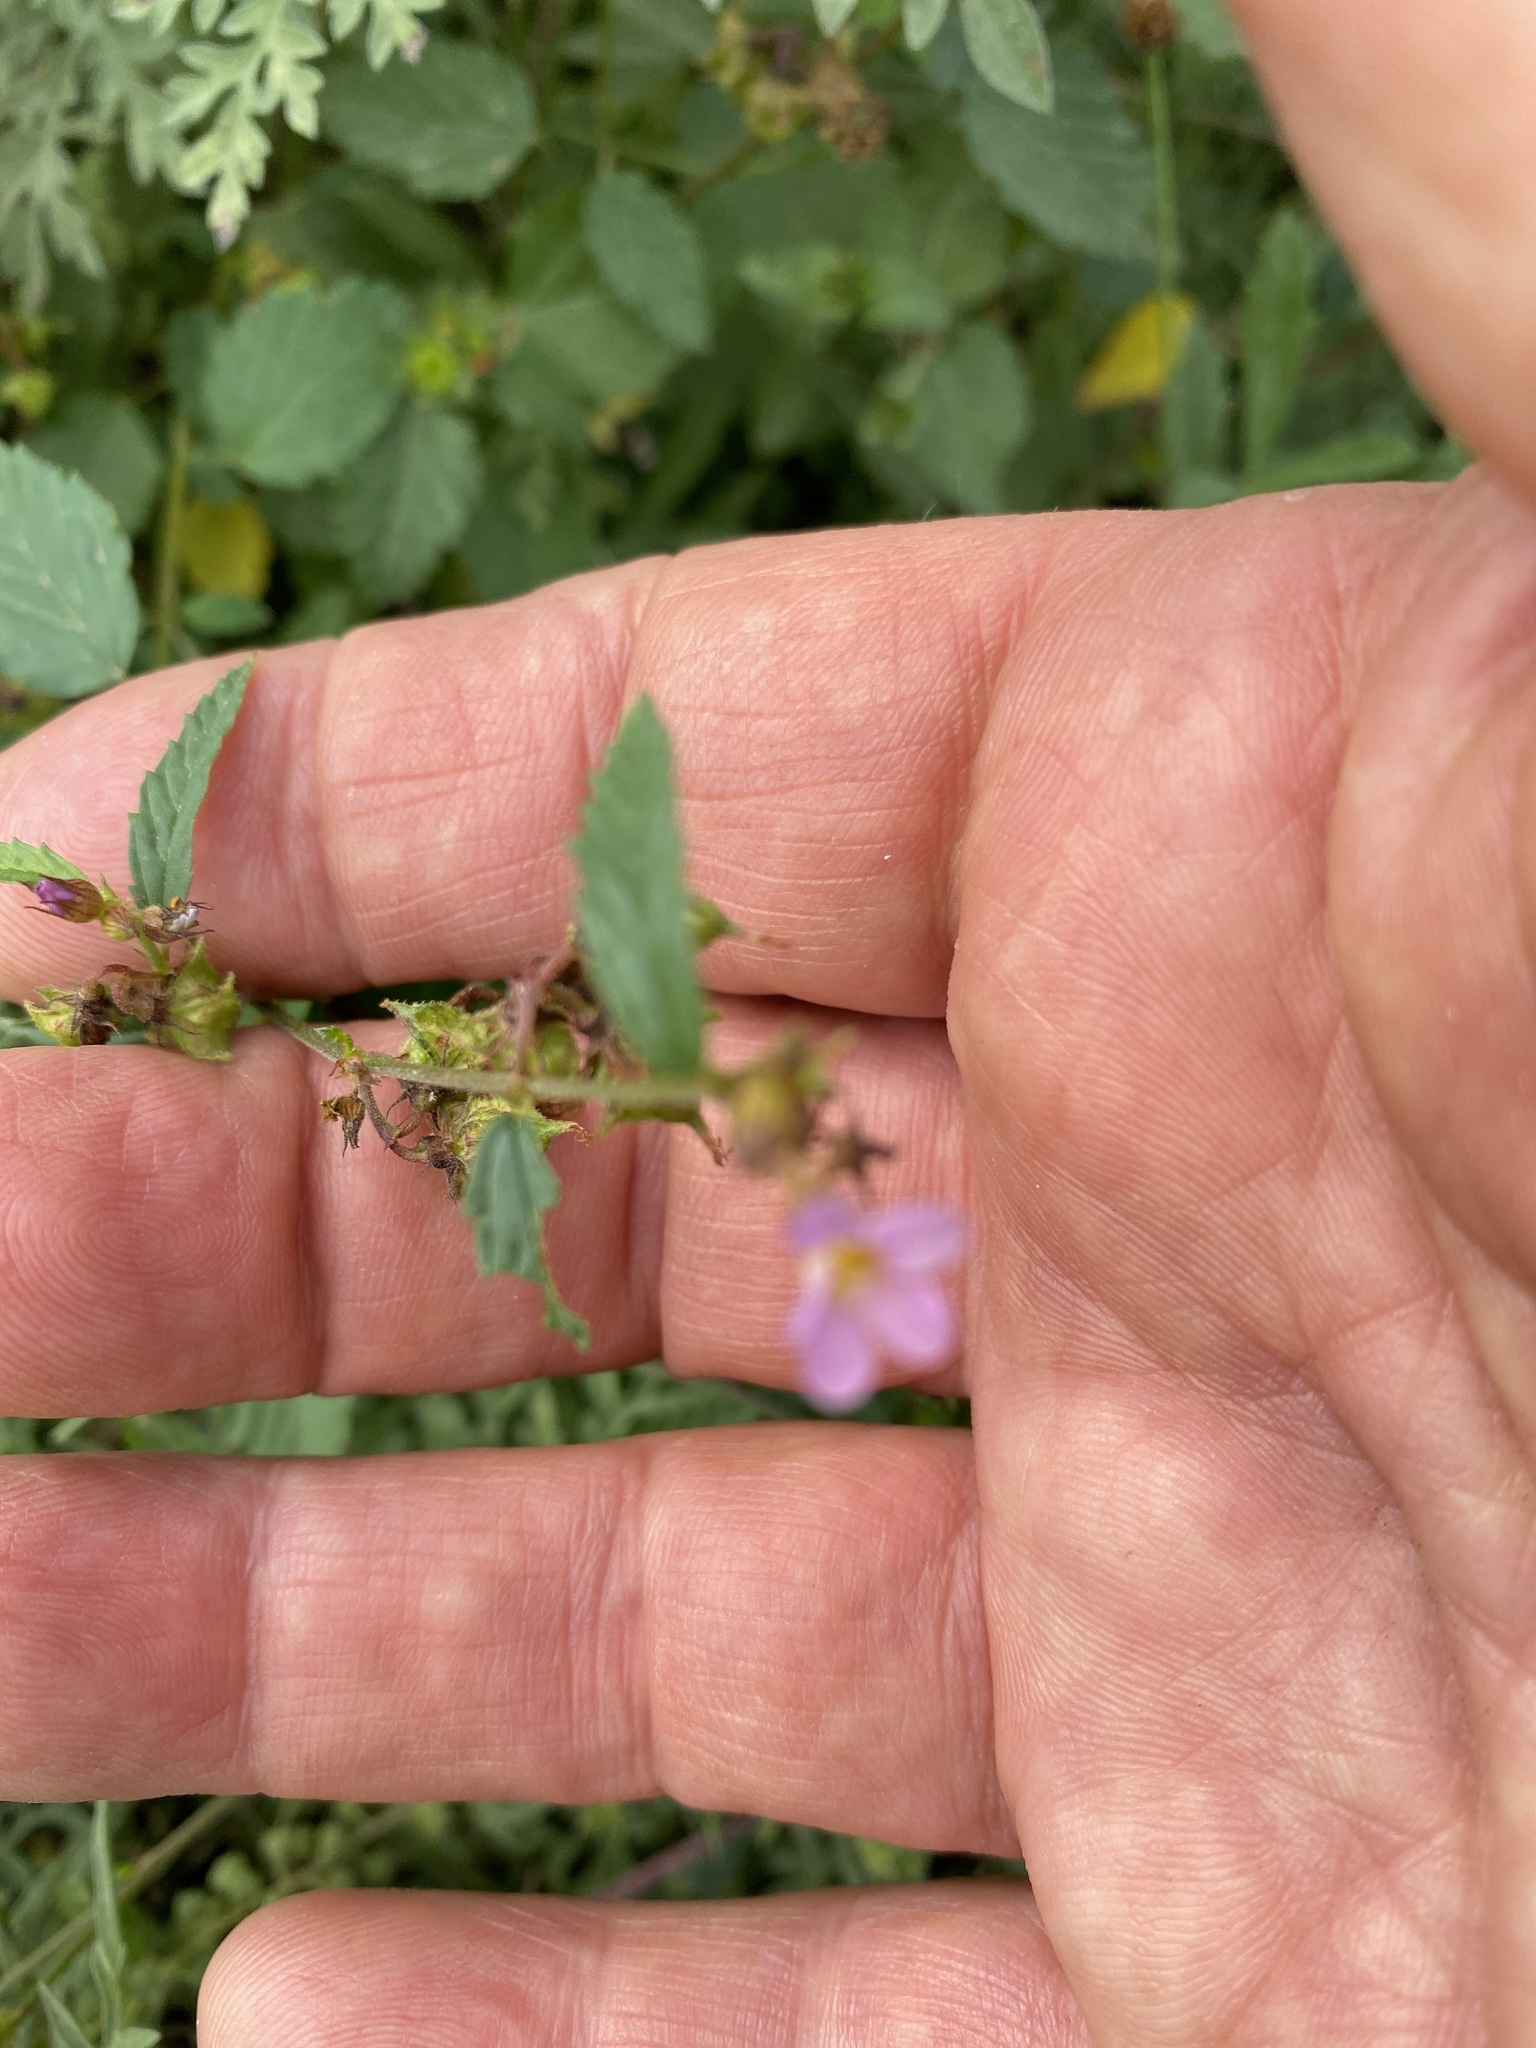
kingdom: Plantae
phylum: Tracheophyta
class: Magnoliopsida
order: Malvales
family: Malvaceae
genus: Melochia
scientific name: Melochia pyramidata
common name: Pyramidflower
